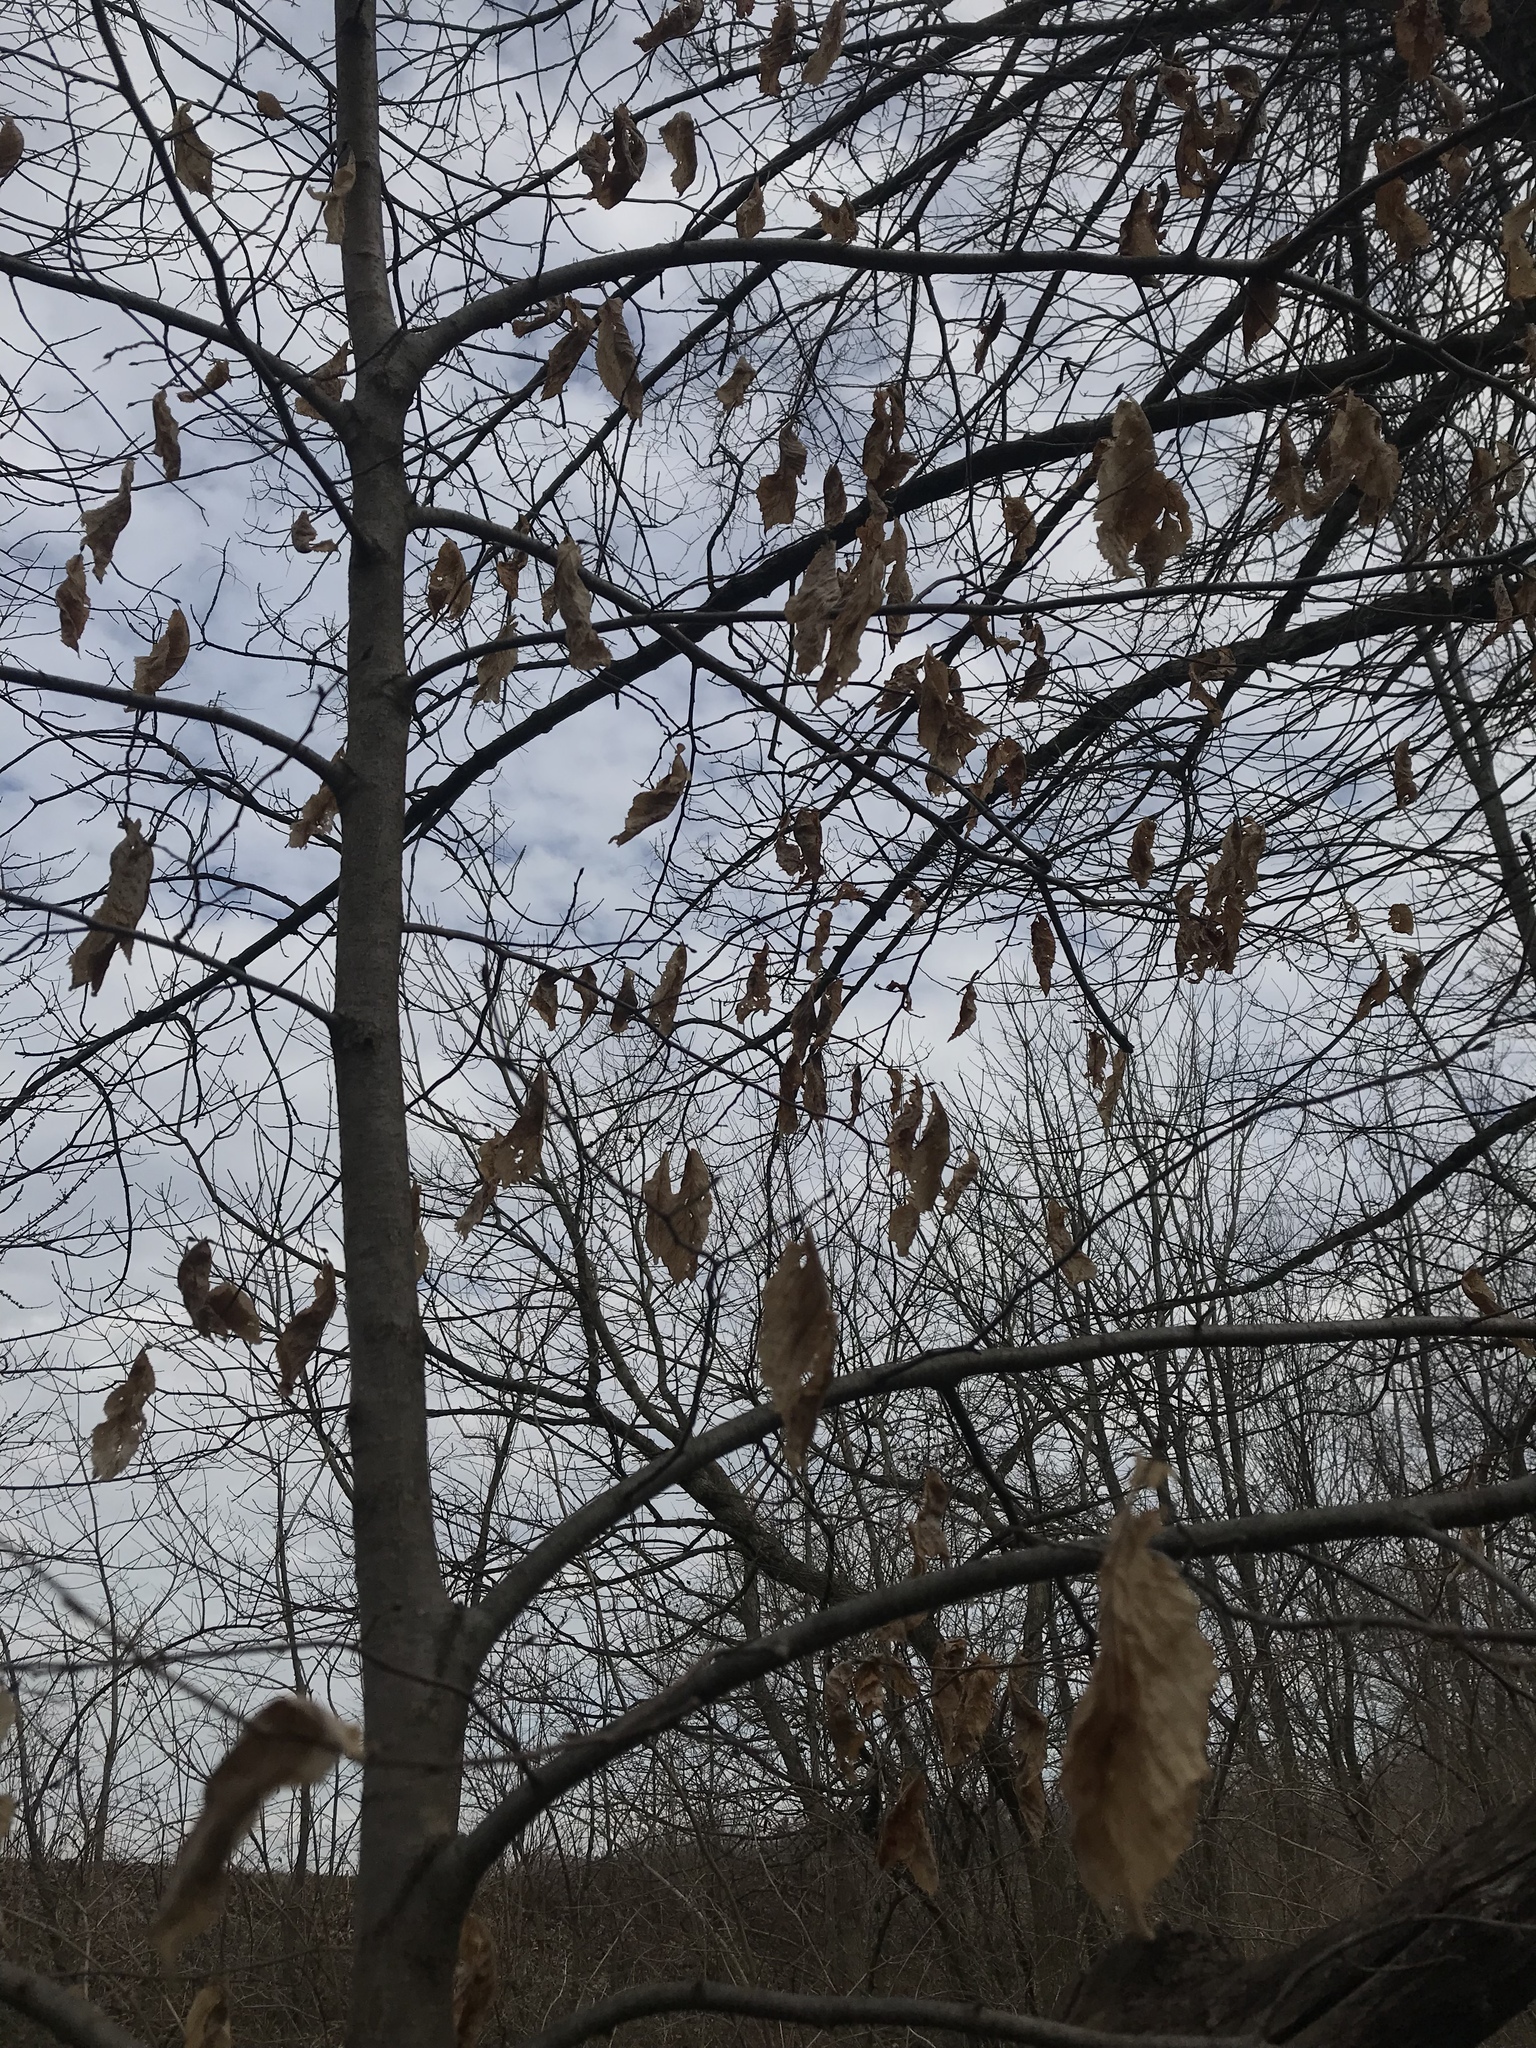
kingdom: Plantae
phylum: Tracheophyta
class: Magnoliopsida
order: Fagales
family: Fagaceae
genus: Fagus
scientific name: Fagus grandifolia
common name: American beech
